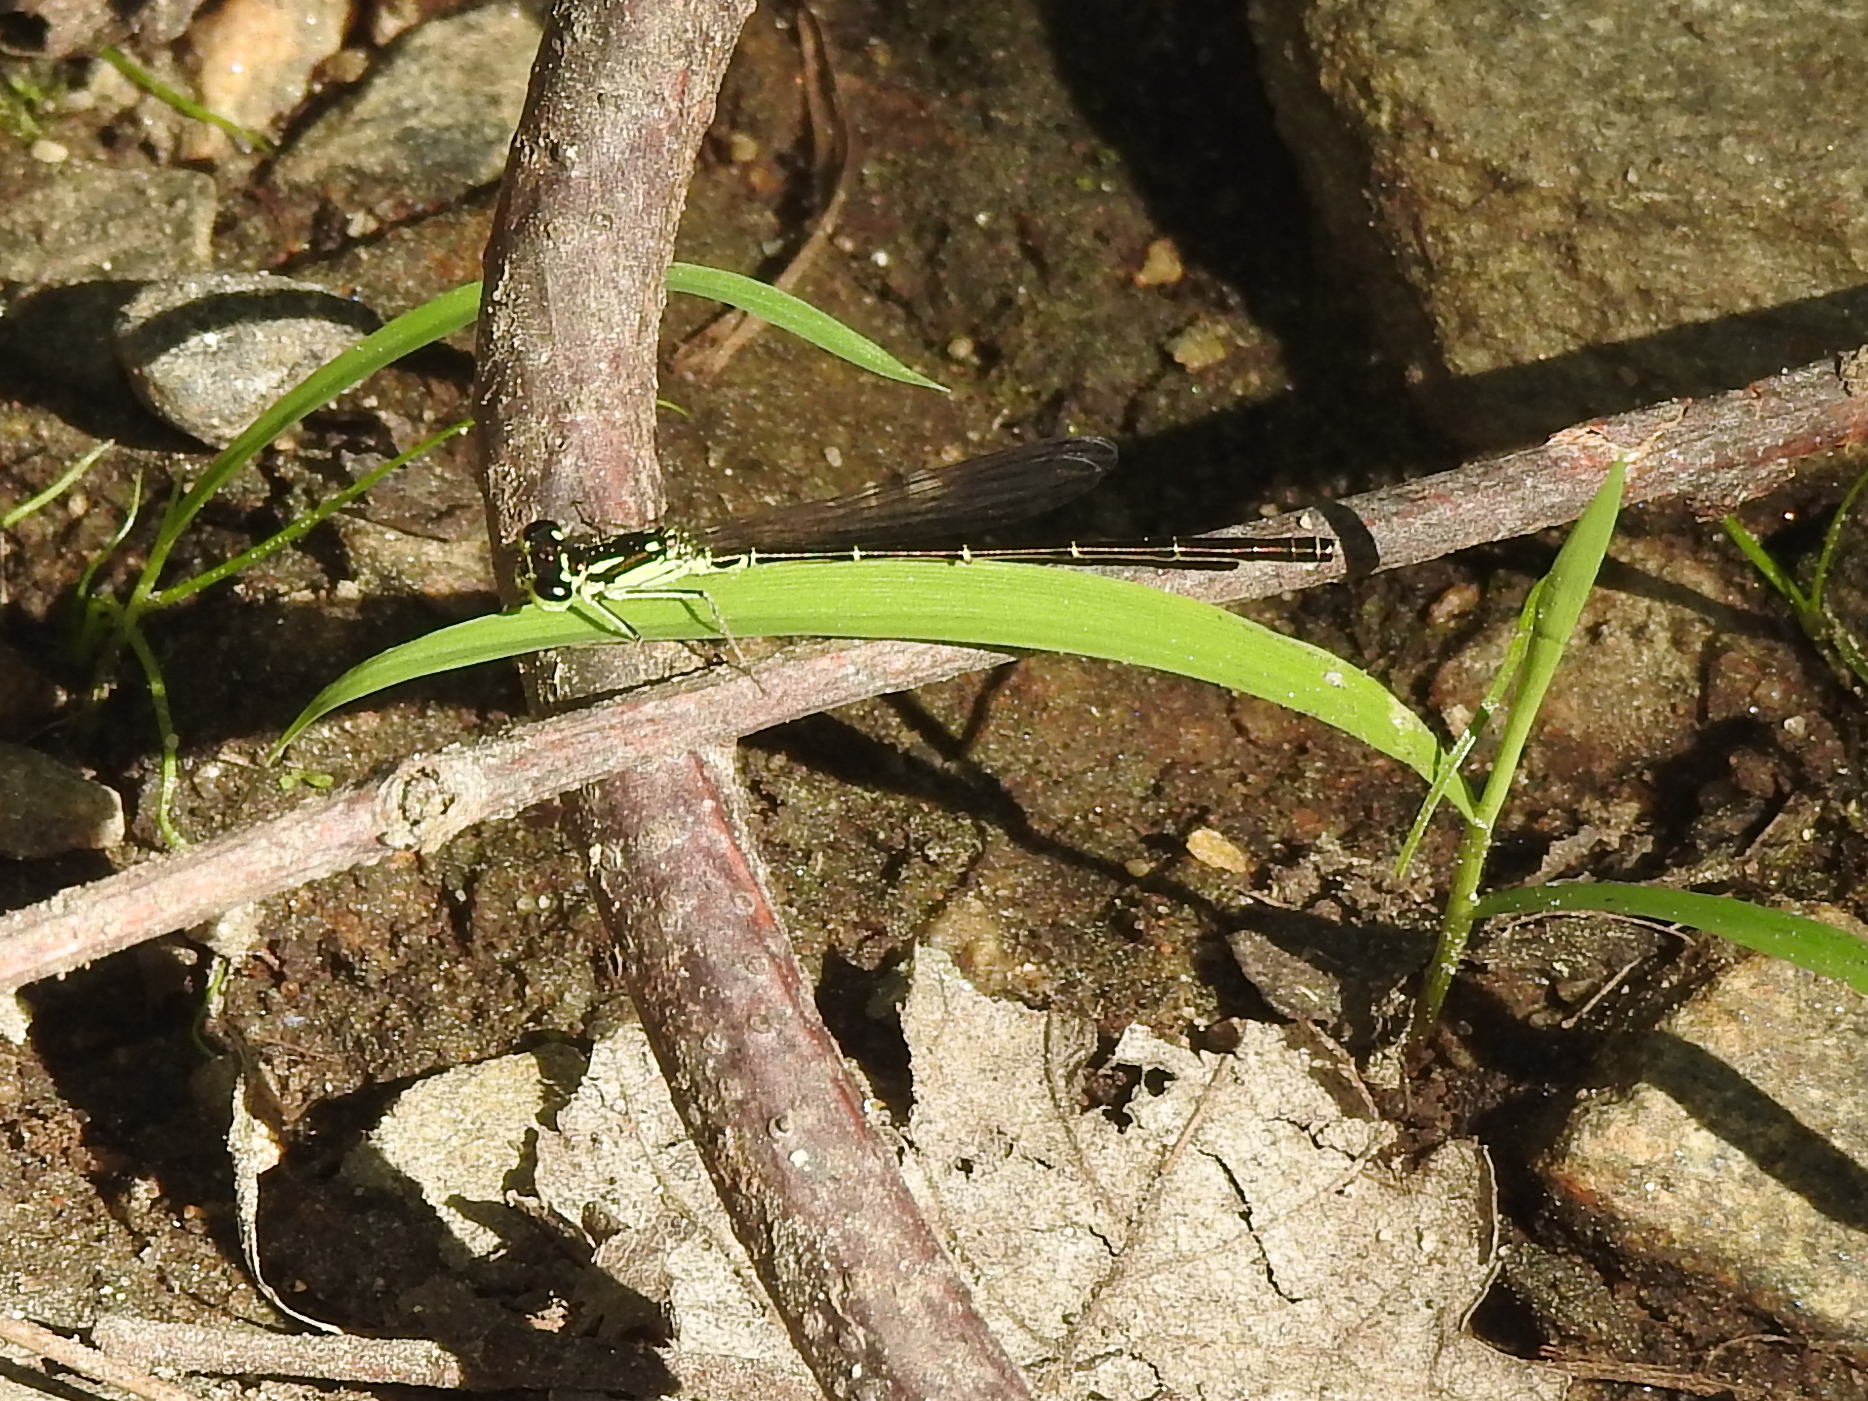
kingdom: Animalia
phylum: Arthropoda
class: Insecta
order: Odonata
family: Coenagrionidae
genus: Ischnura
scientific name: Ischnura posita
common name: Fragile forktail
